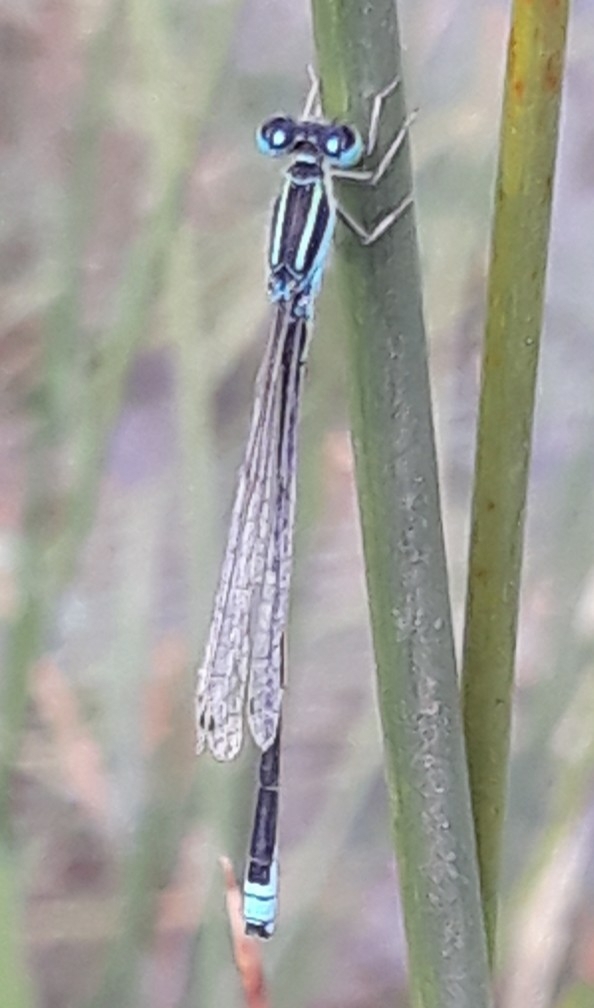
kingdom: Animalia
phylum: Arthropoda
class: Insecta
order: Odonata
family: Coenagrionidae
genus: Ischnura
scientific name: Ischnura pumilio
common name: Scarce blue-tailed damselfly
